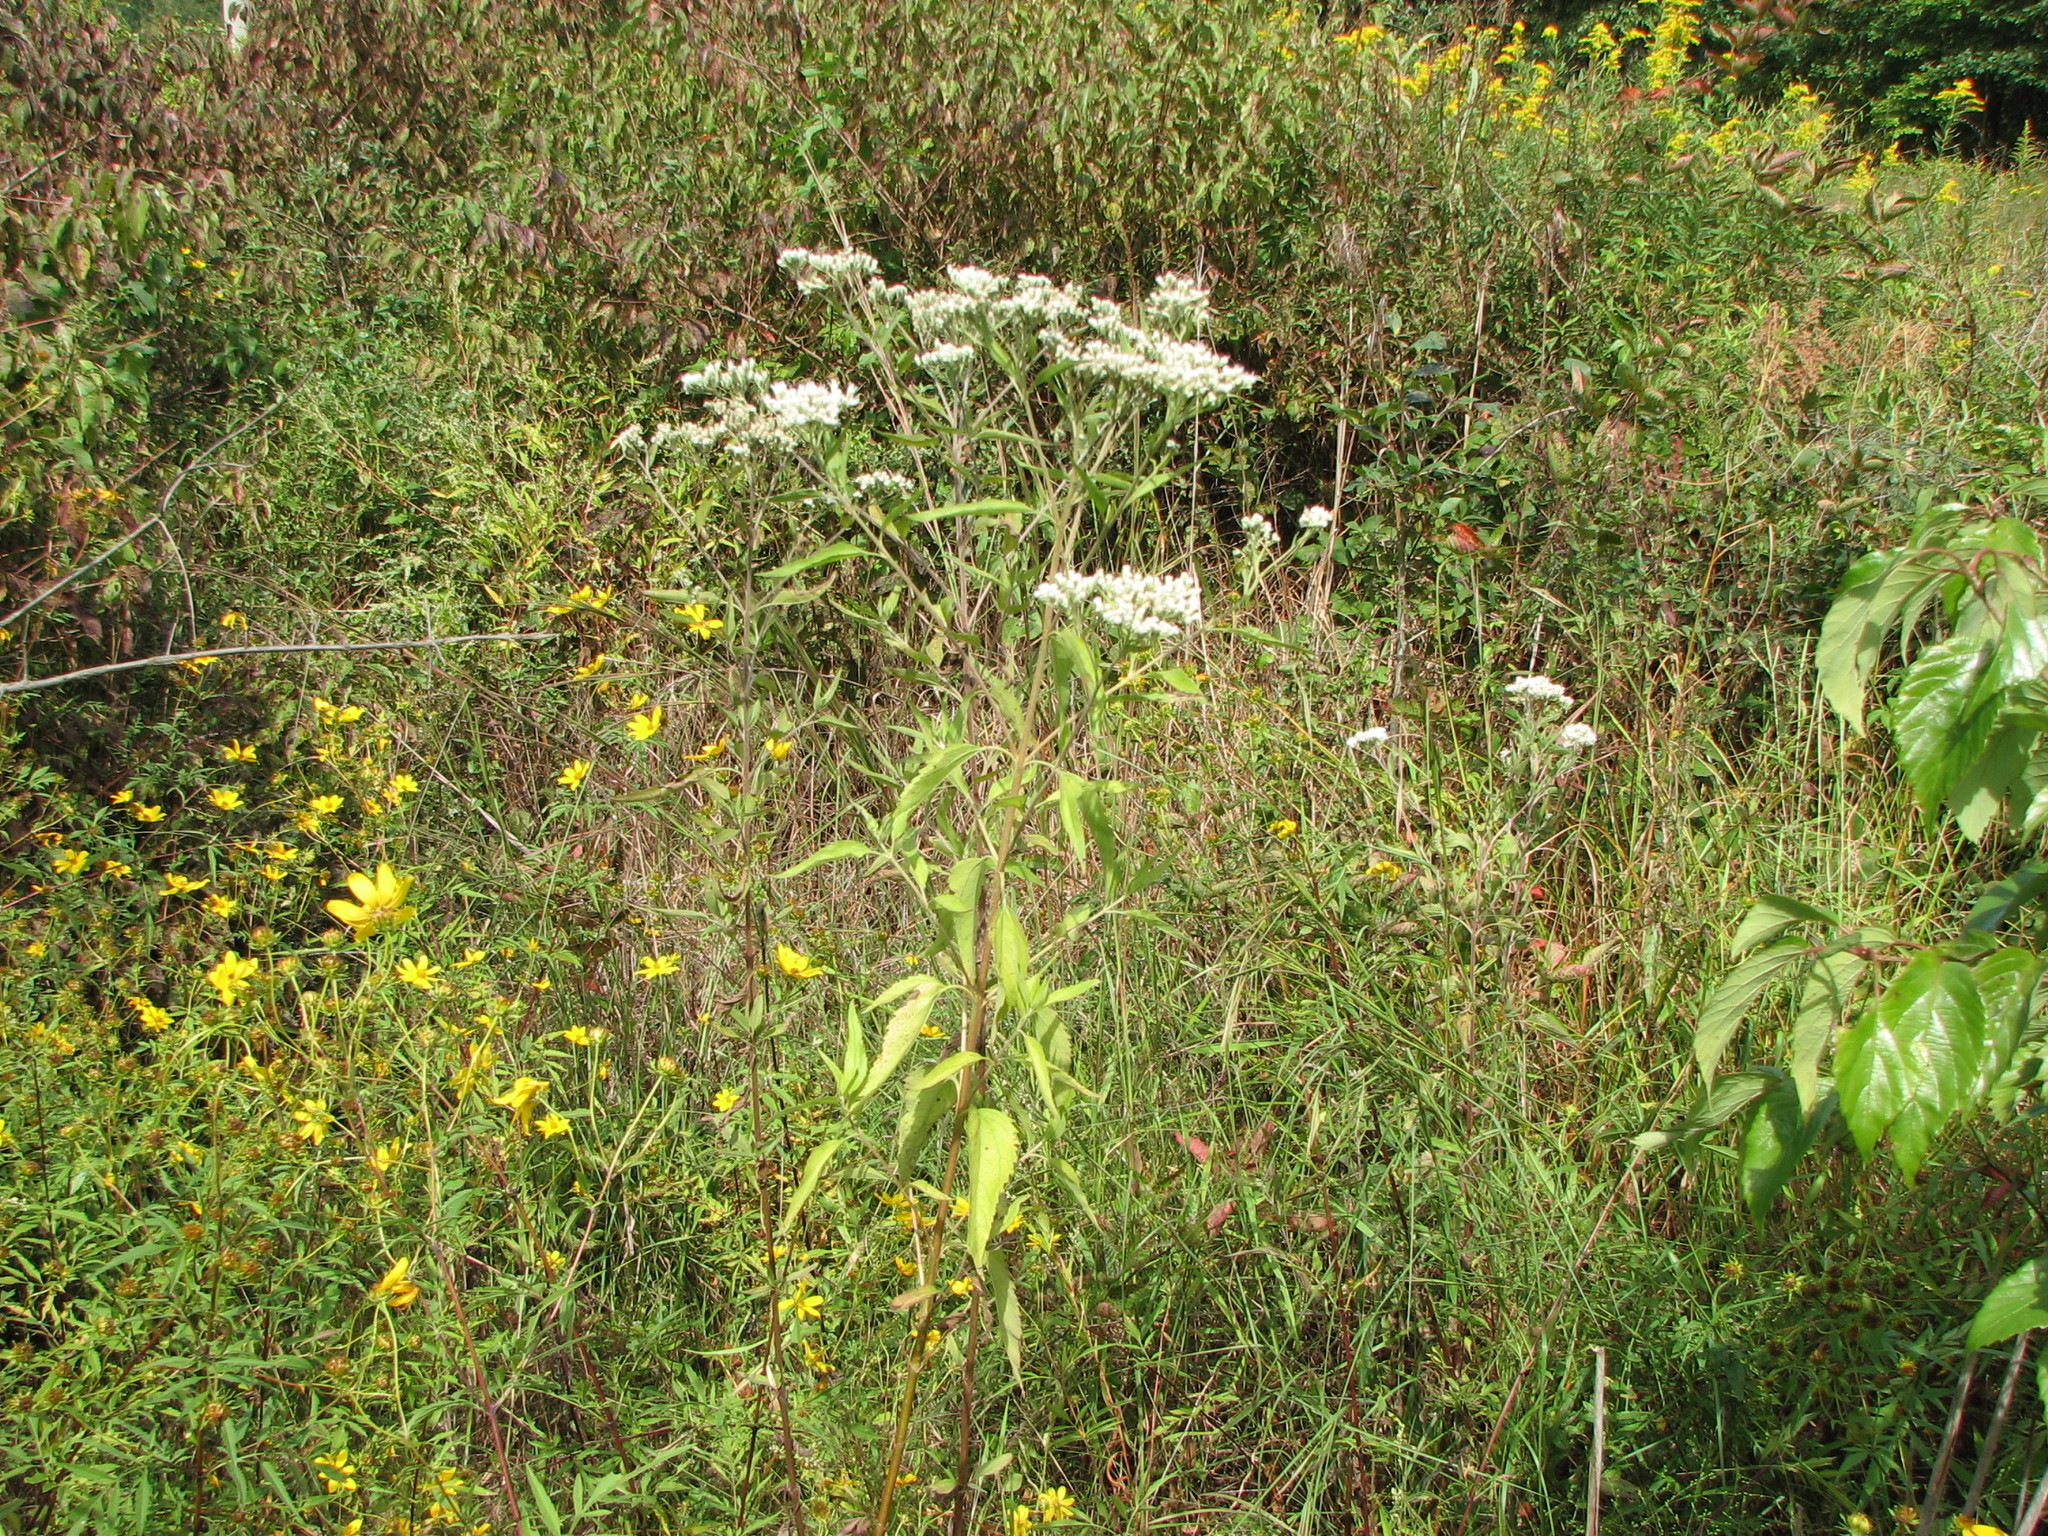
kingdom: Plantae
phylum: Tracheophyta
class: Magnoliopsida
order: Asterales
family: Asteraceae
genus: Eupatorium
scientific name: Eupatorium serotinum
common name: Late boneset
